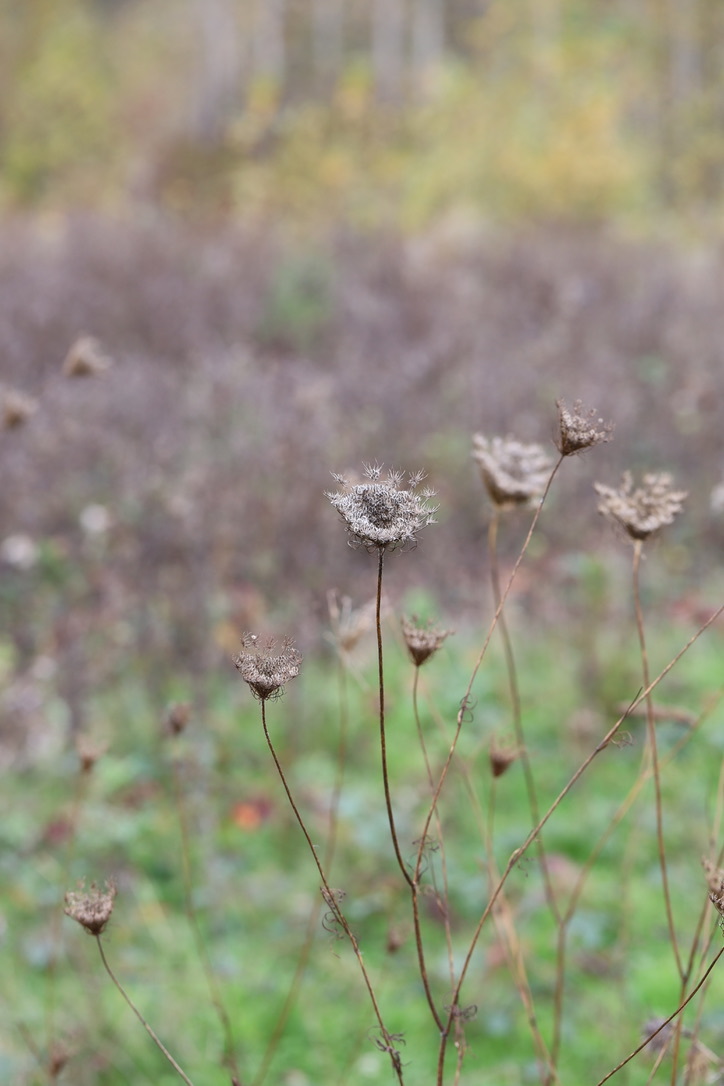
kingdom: Plantae
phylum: Tracheophyta
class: Magnoliopsida
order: Apiales
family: Apiaceae
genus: Daucus
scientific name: Daucus carota
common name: Wild carrot
